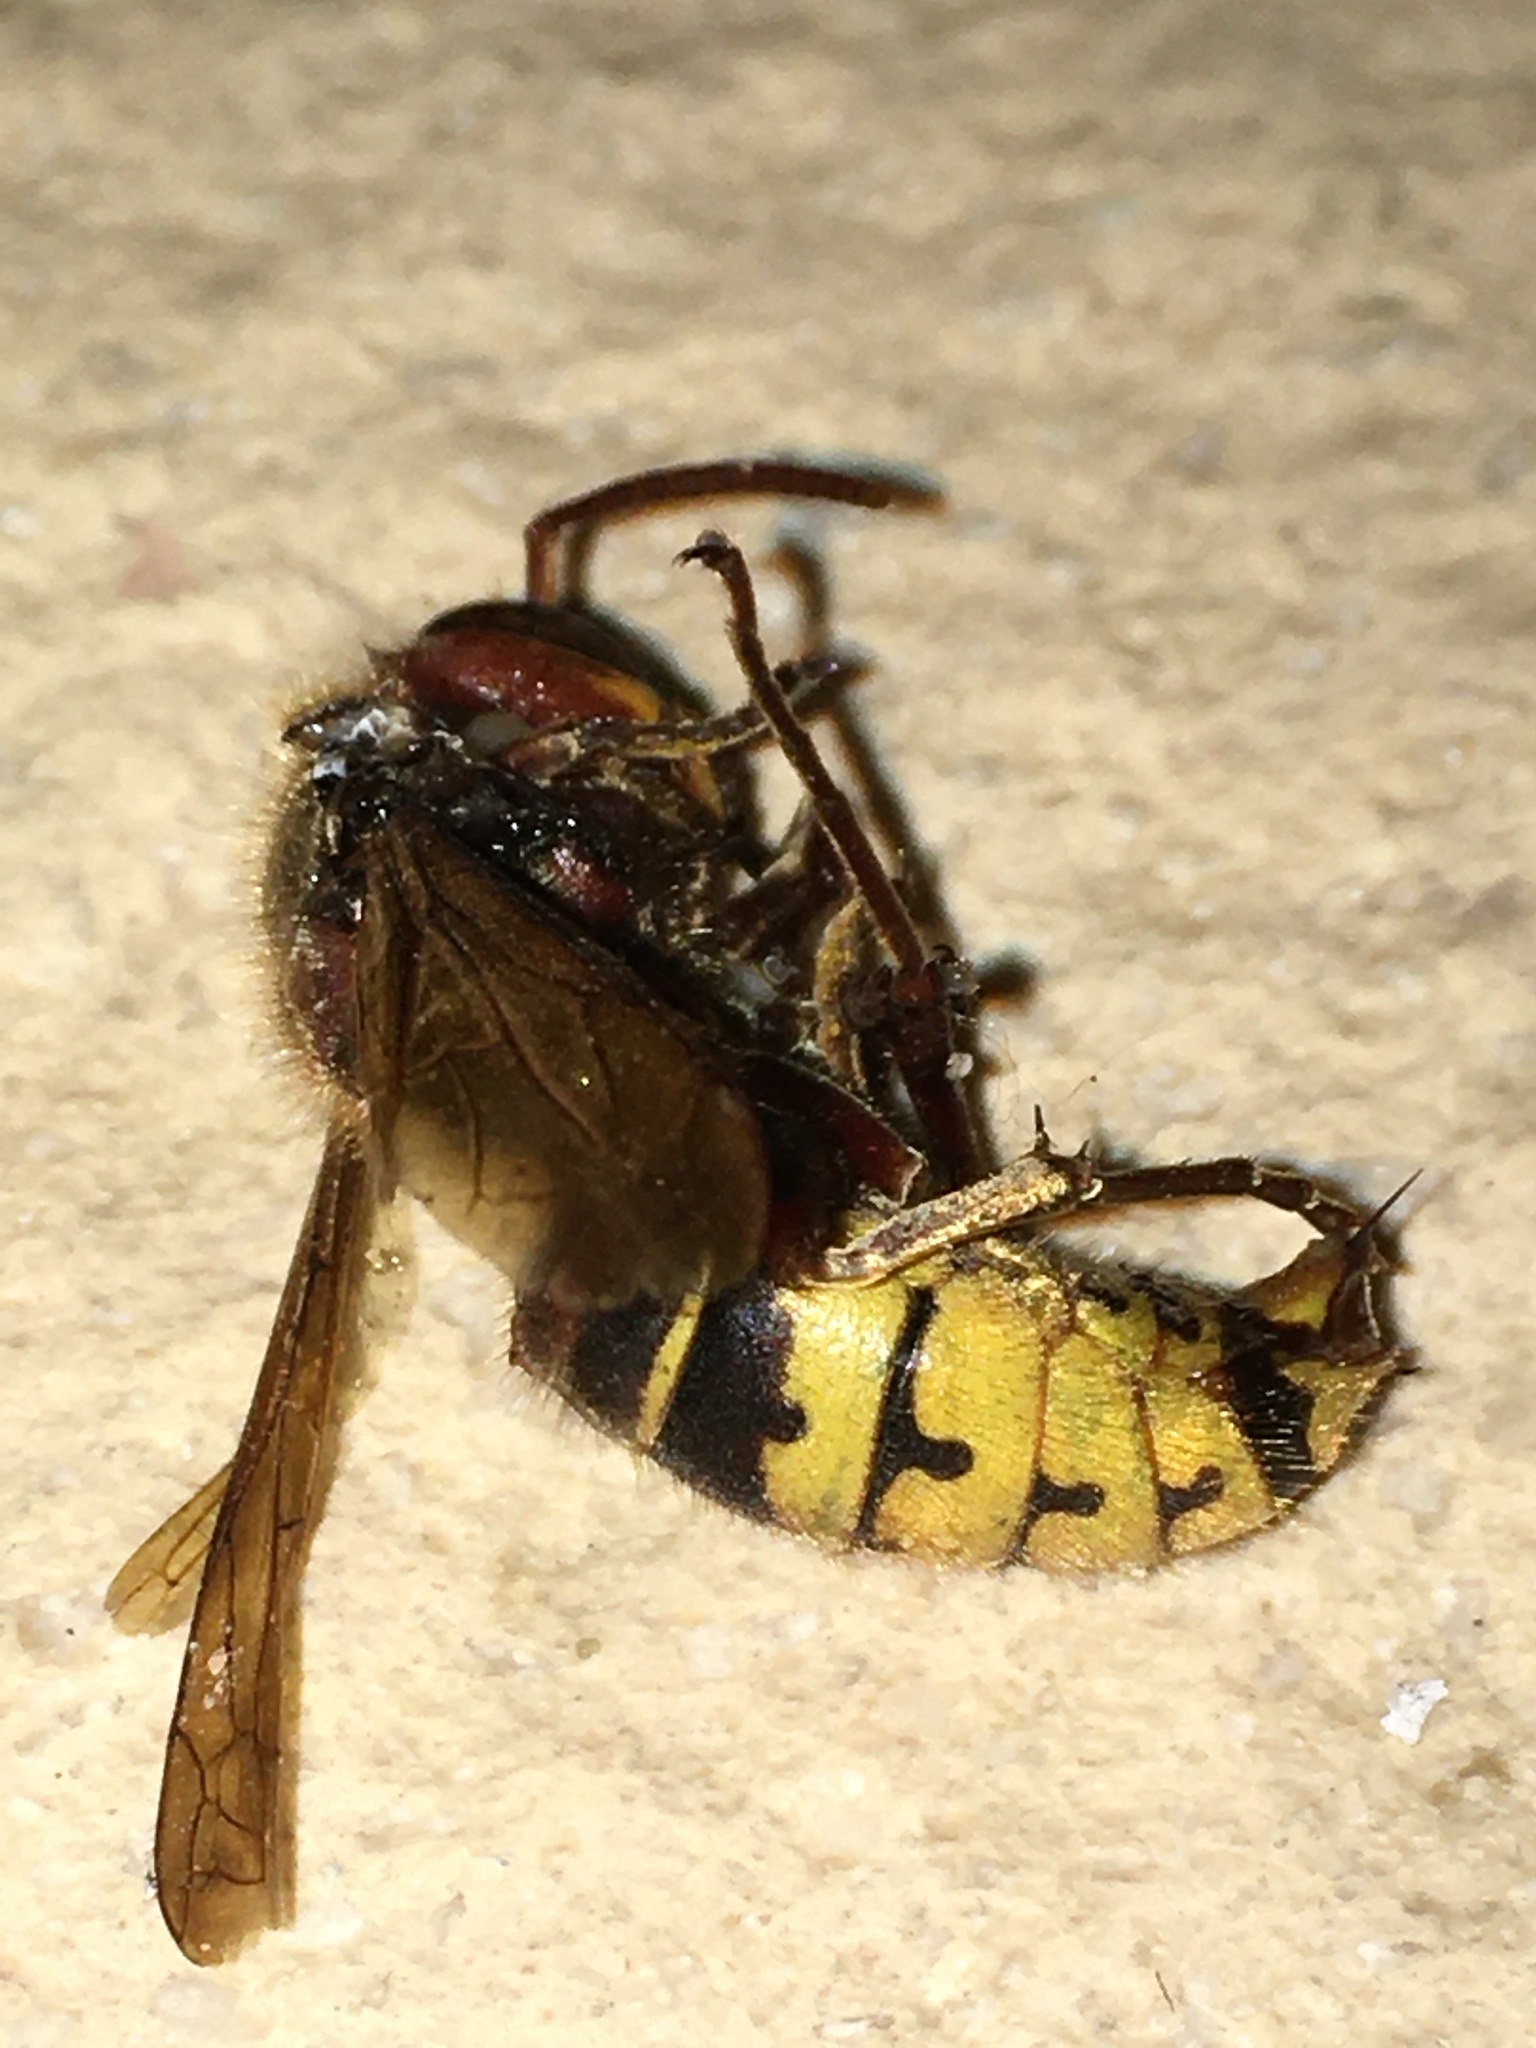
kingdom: Animalia
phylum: Arthropoda
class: Insecta
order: Hymenoptera
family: Vespidae
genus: Vespa
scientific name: Vespa crabro
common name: Hornet
